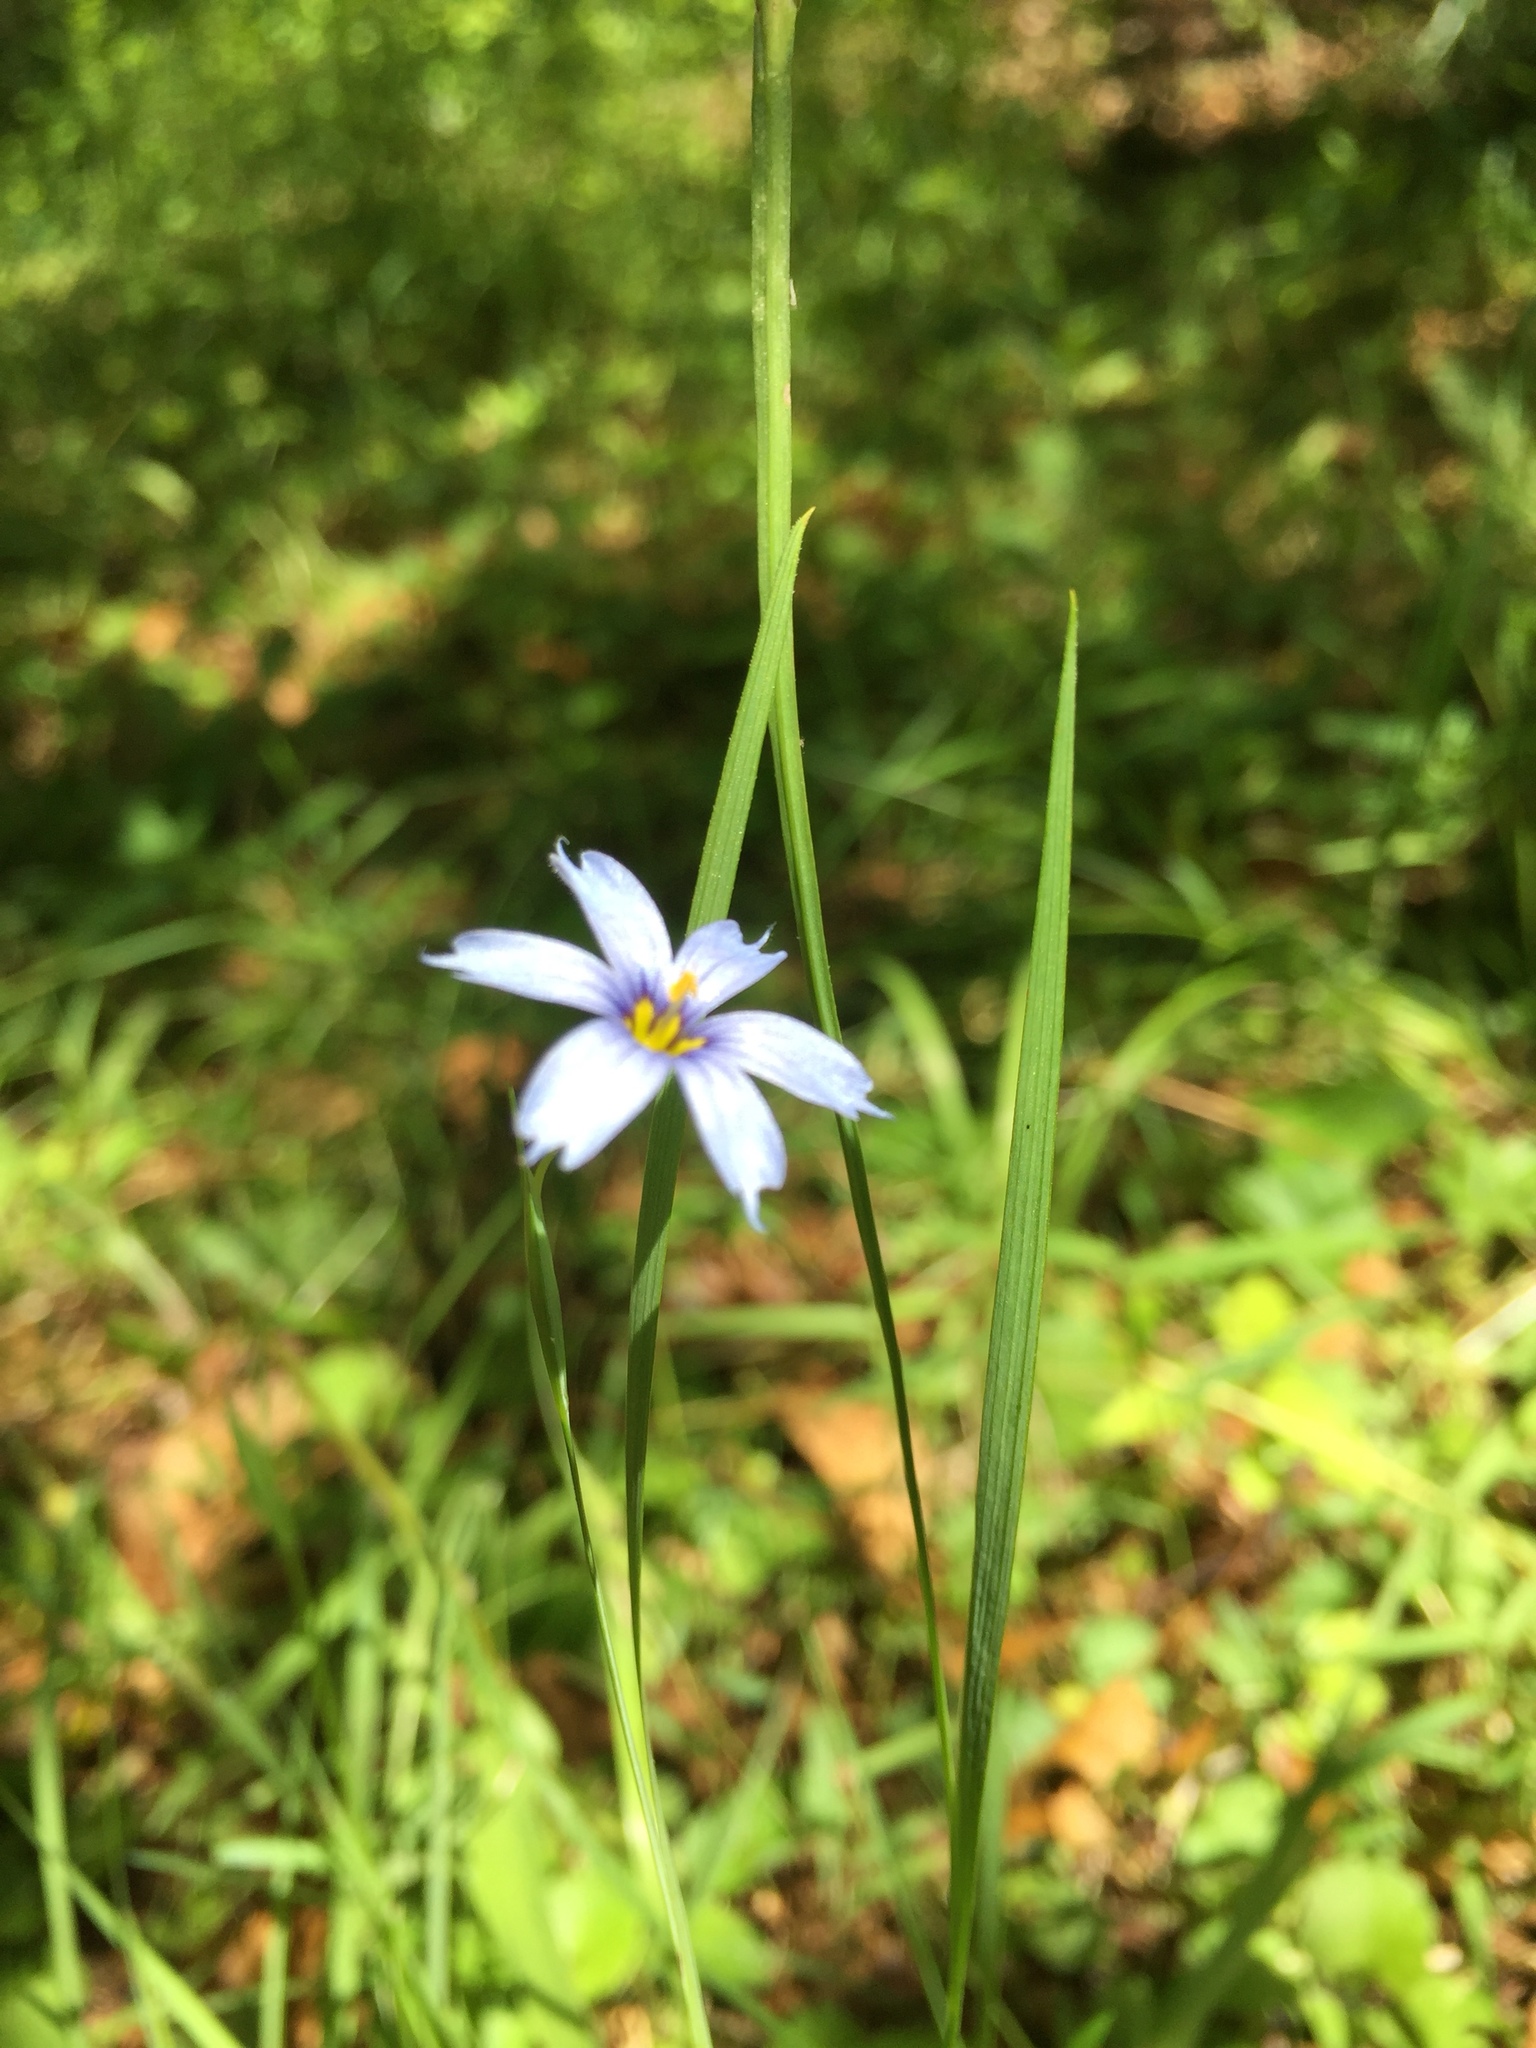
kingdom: Plantae
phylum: Tracheophyta
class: Liliopsida
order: Asparagales
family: Iridaceae
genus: Sisyrinchium
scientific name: Sisyrinchium angustifolium
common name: Narrow-leaf blue-eyed-grass
